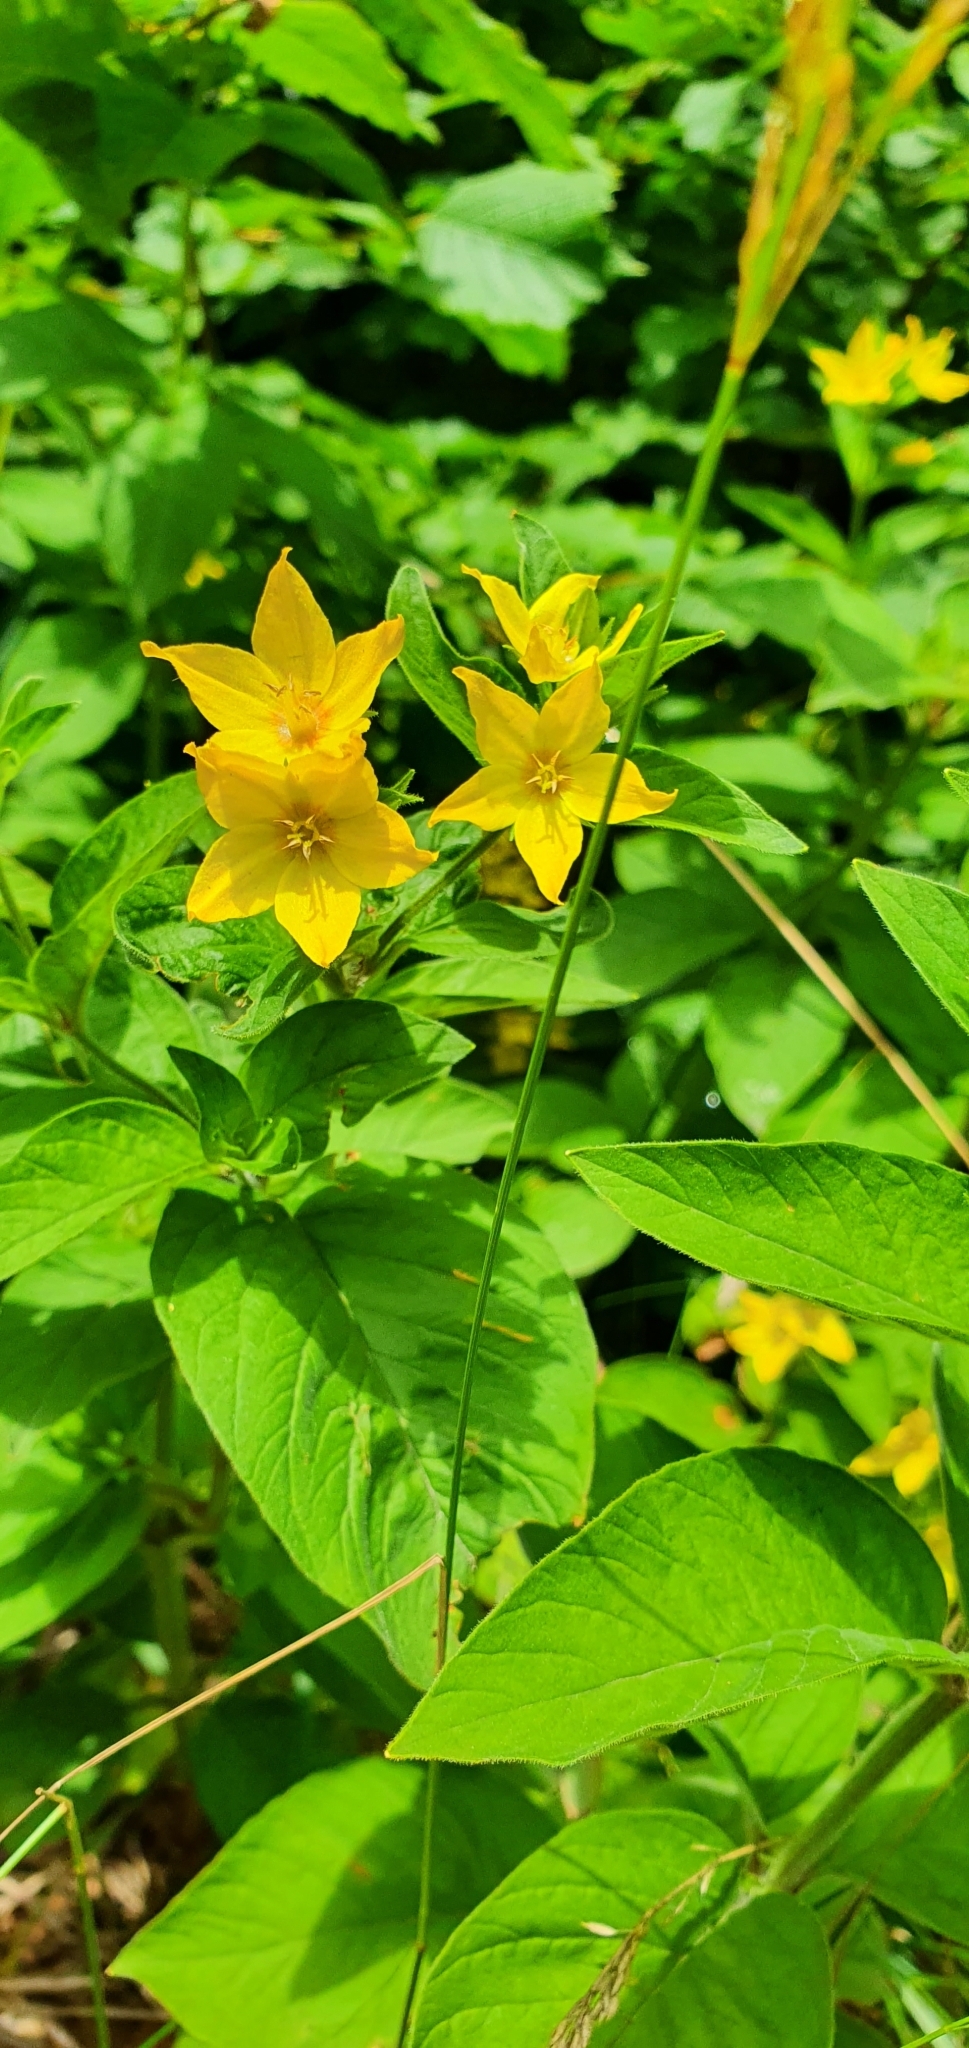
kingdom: Plantae
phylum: Tracheophyta
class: Magnoliopsida
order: Ericales
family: Primulaceae
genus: Lysimachia
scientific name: Lysimachia punctata
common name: Dotted loosestrife
